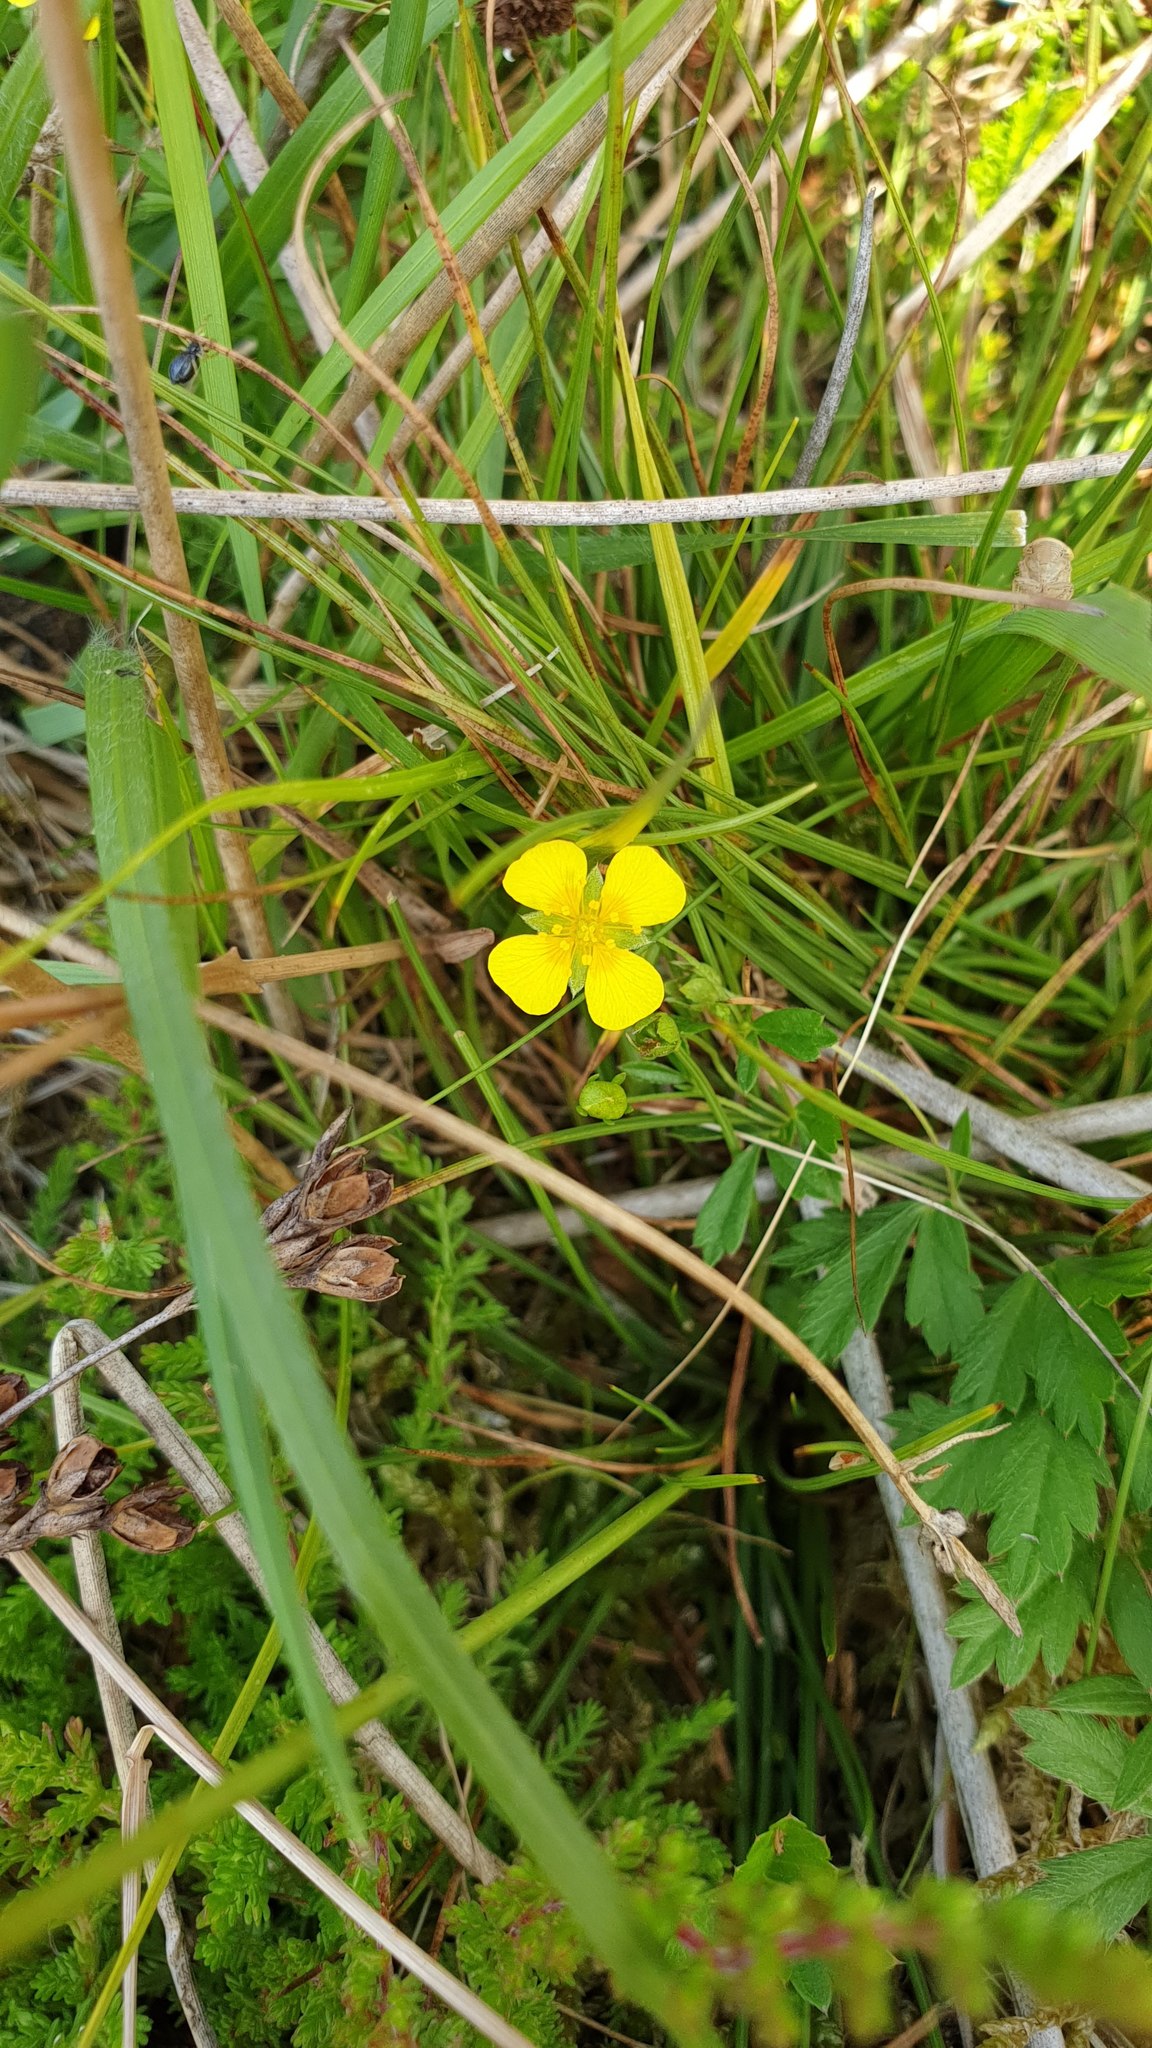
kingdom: Plantae
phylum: Tracheophyta
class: Magnoliopsida
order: Rosales
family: Rosaceae
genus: Potentilla
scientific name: Potentilla erecta
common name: Tormentil
